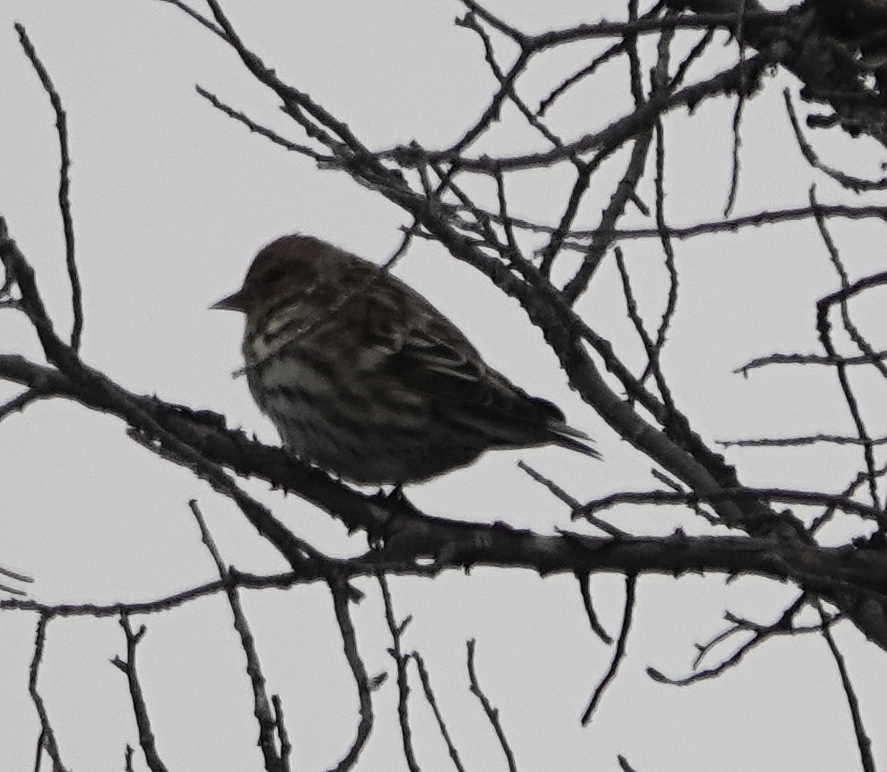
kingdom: Animalia
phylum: Chordata
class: Aves
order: Passeriformes
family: Fringillidae
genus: Spinus
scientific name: Spinus pinus
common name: Pine siskin
